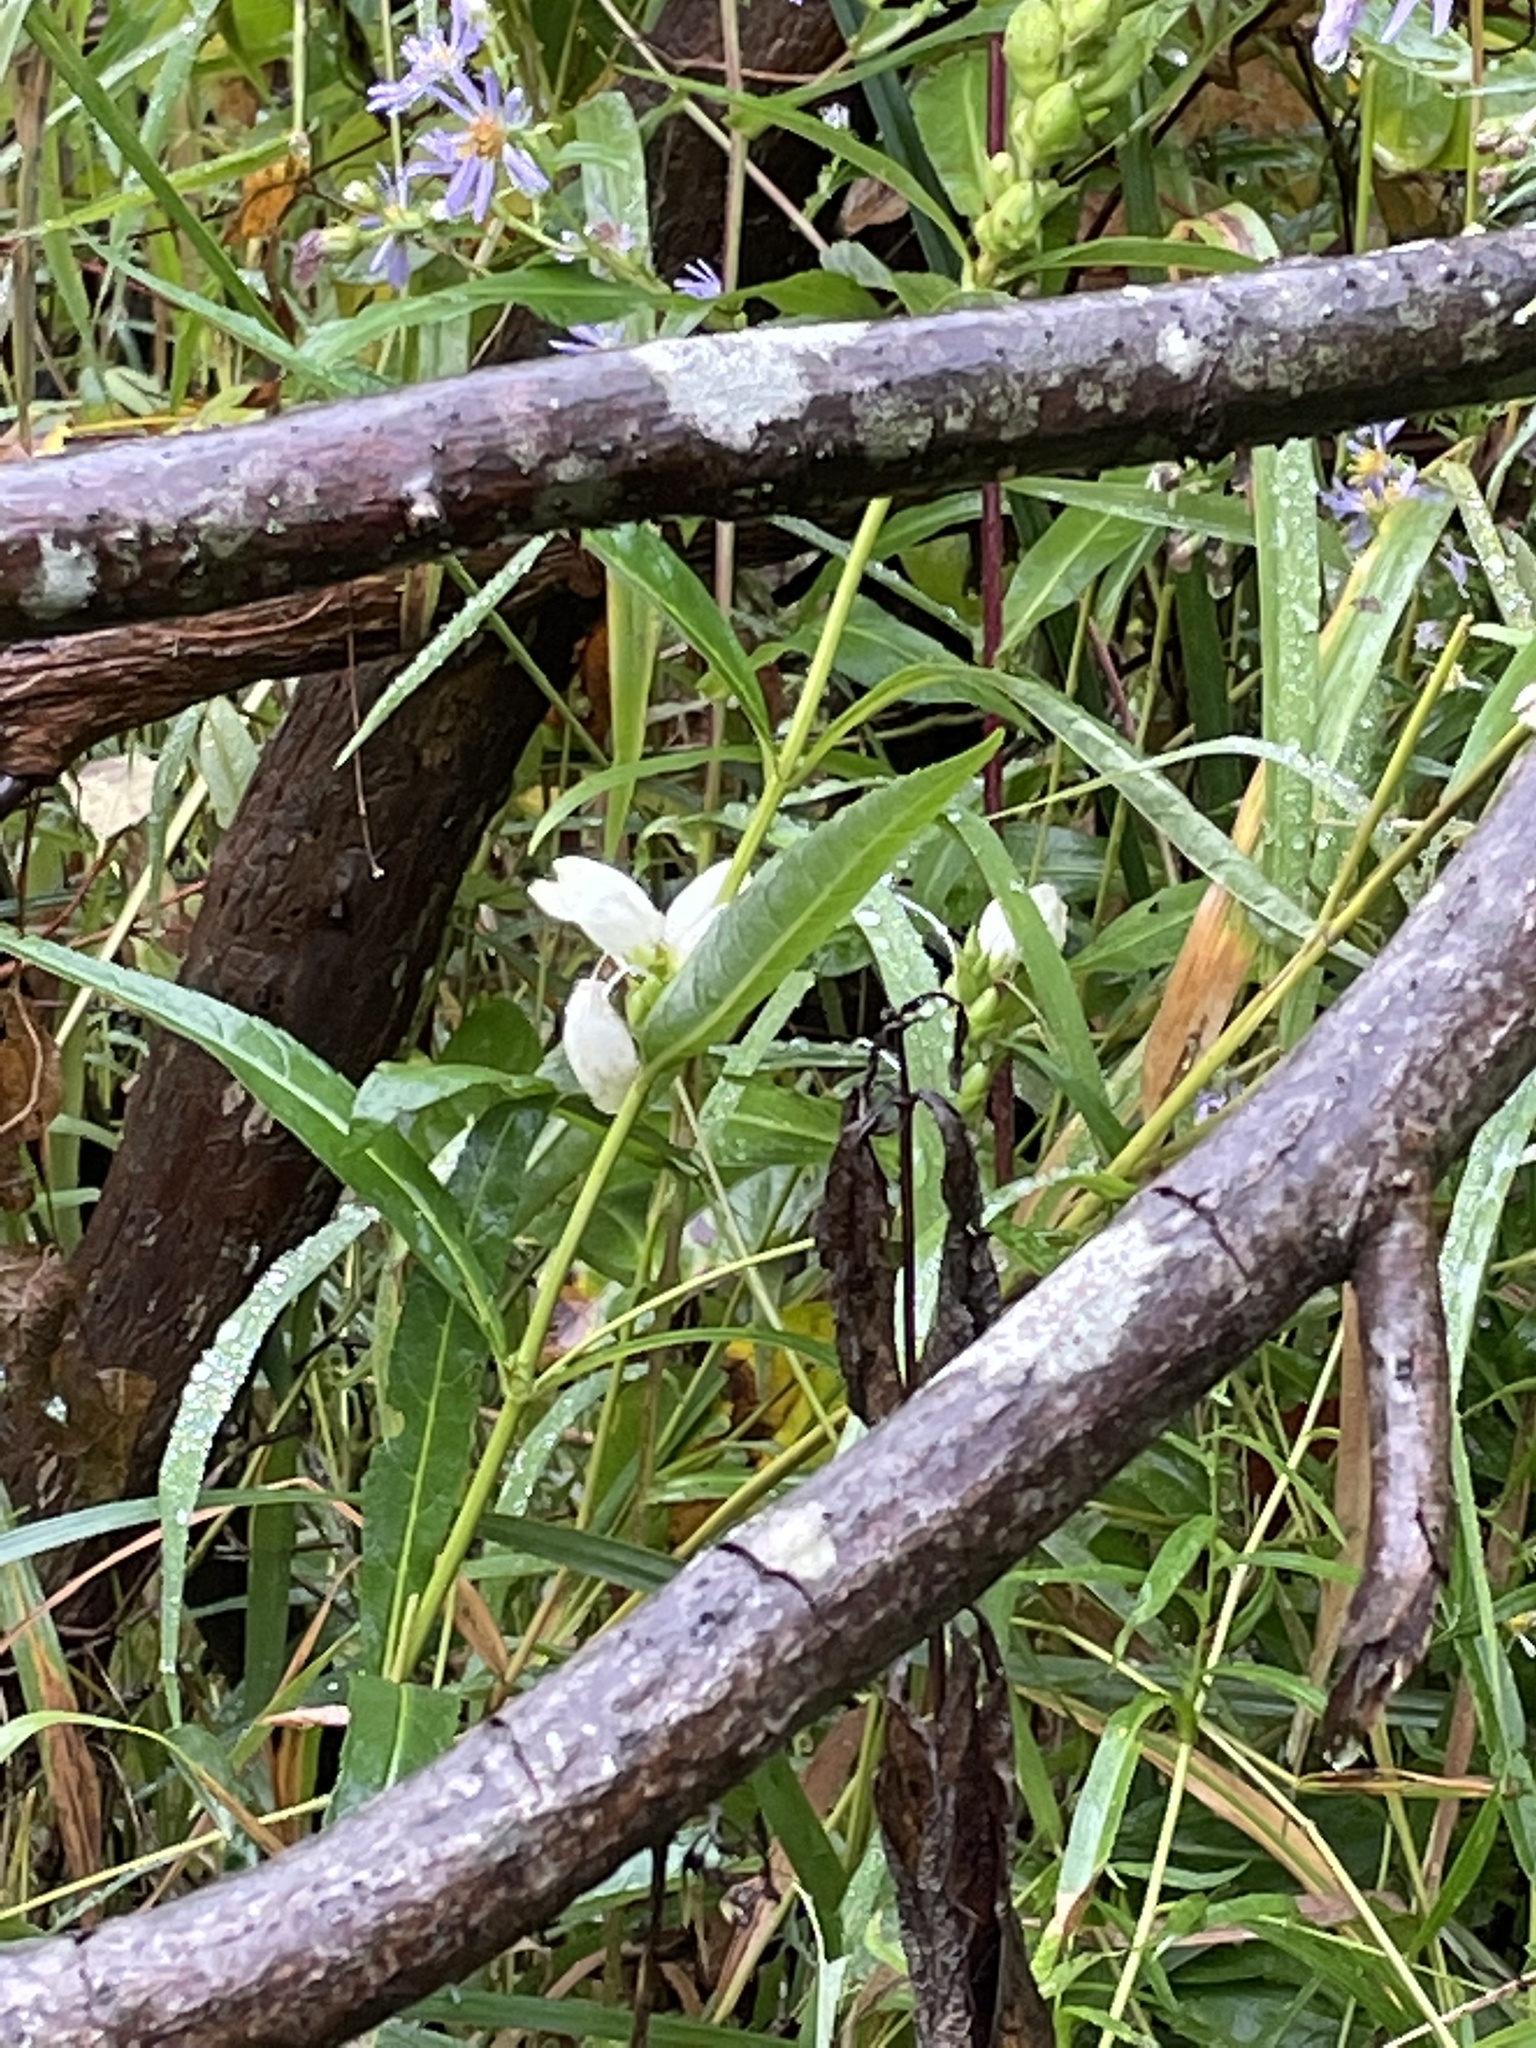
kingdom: Plantae
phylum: Tracheophyta
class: Magnoliopsida
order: Lamiales
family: Plantaginaceae
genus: Chelone
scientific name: Chelone glabra
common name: Snakehead
